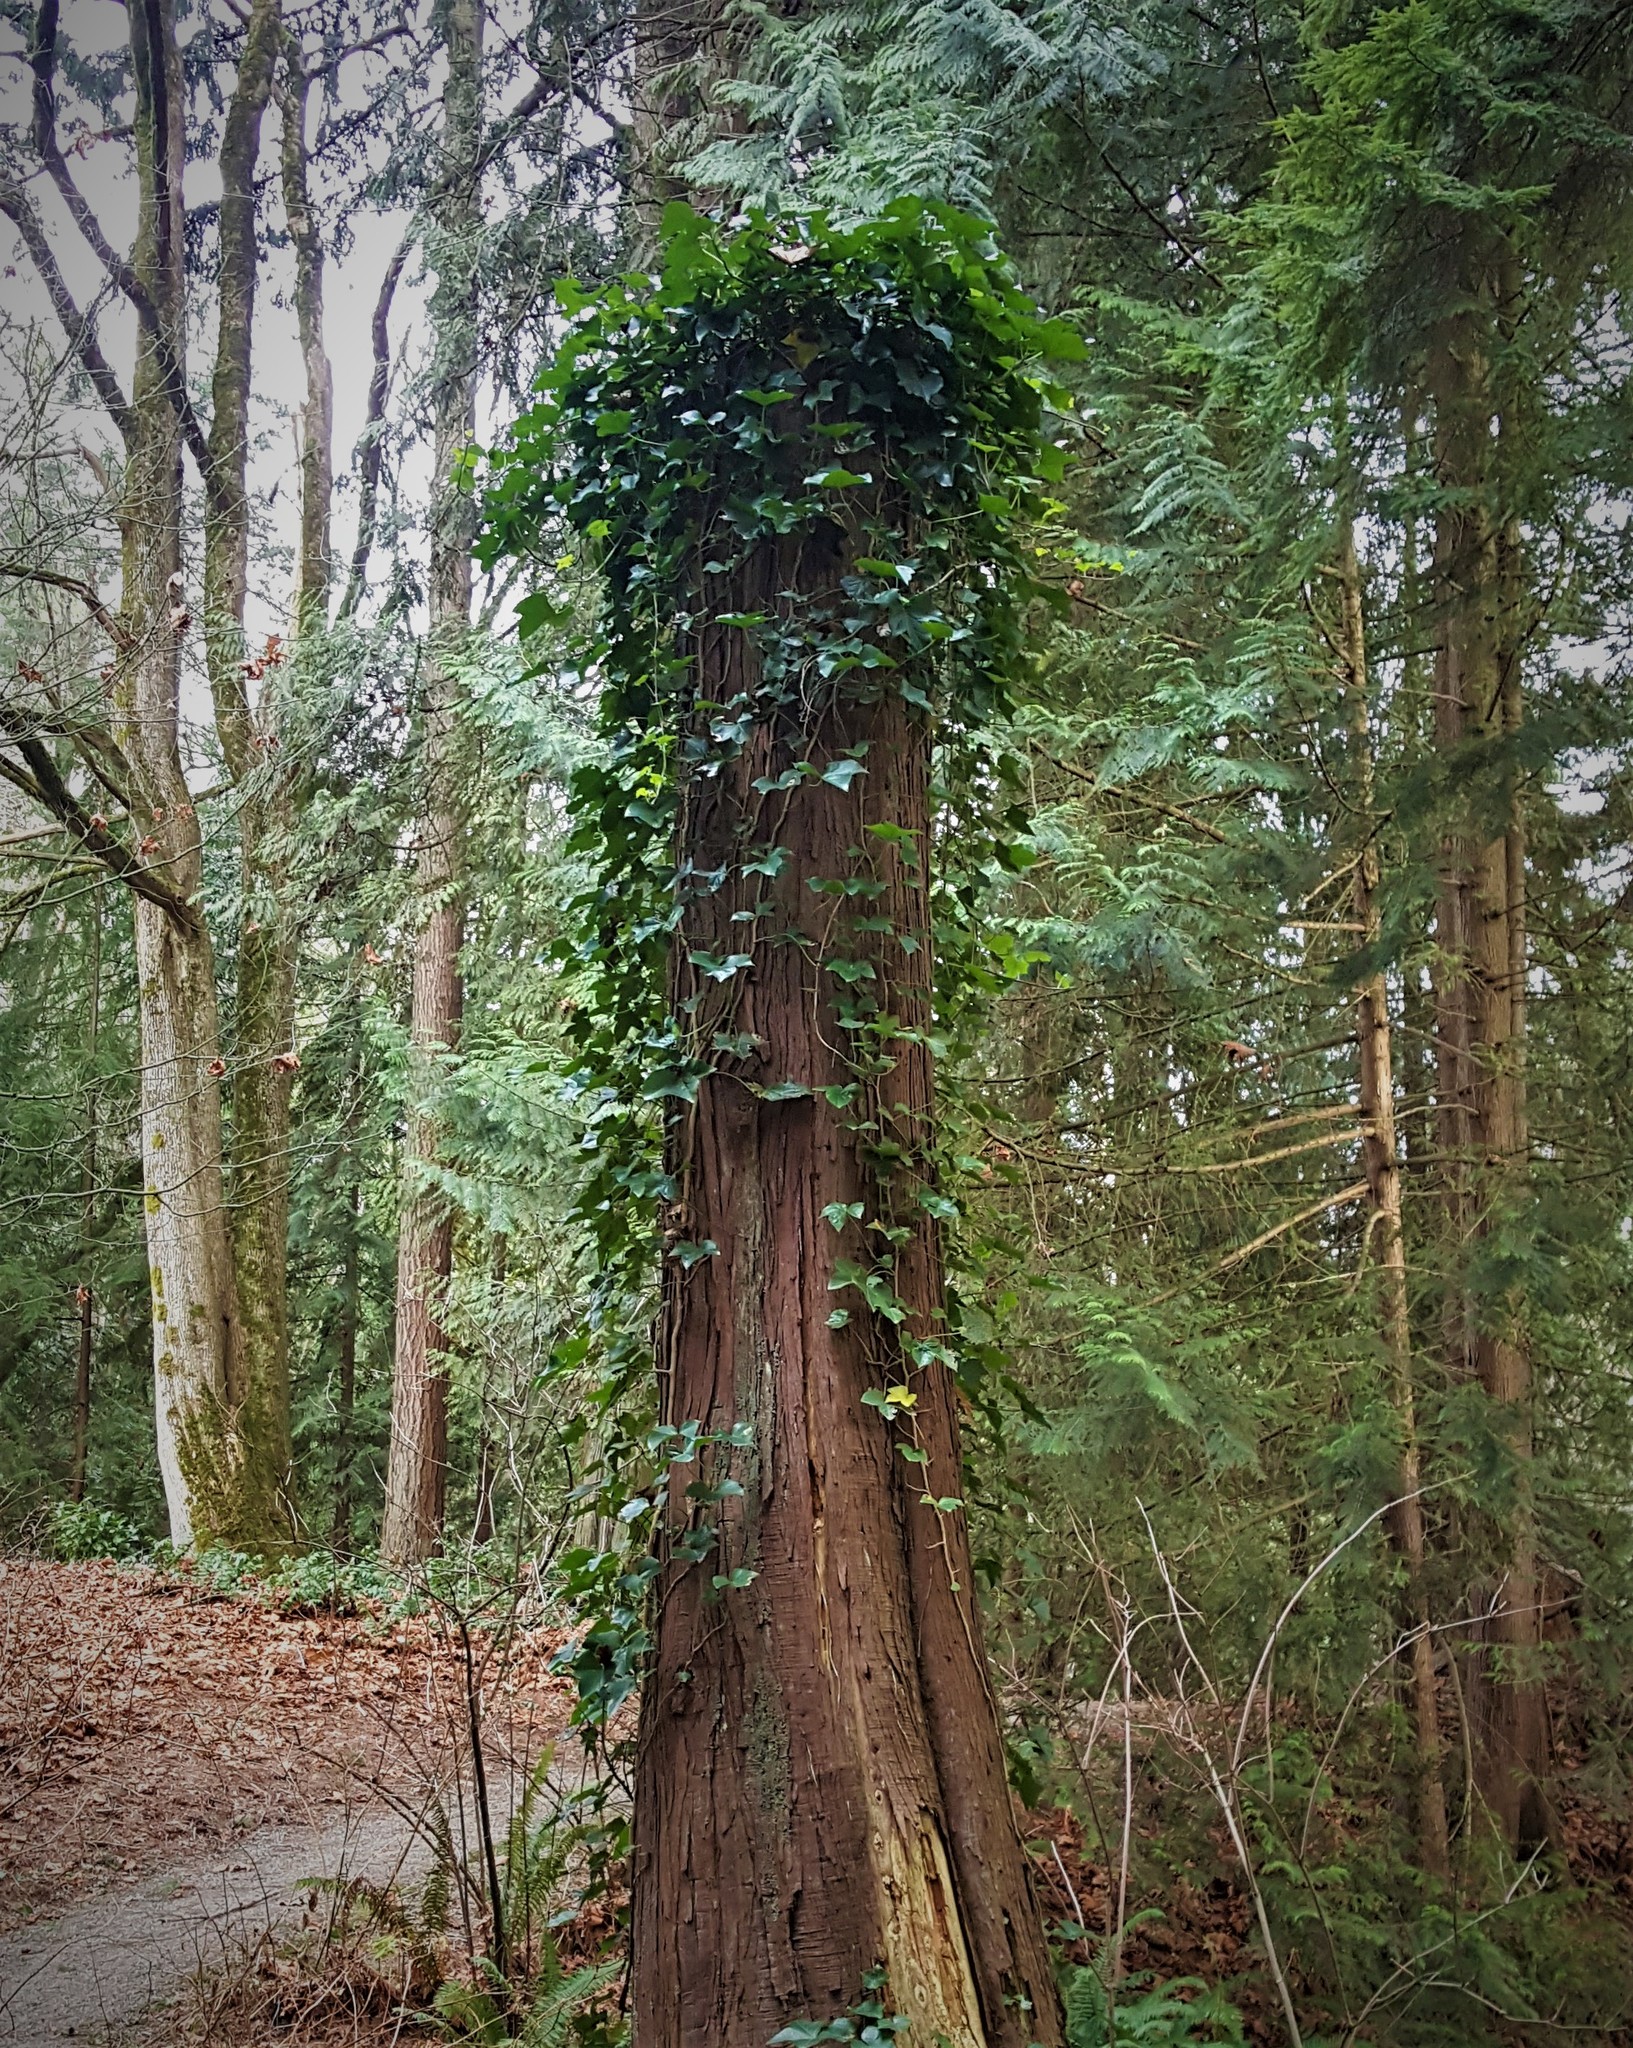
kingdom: Plantae
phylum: Tracheophyta
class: Magnoliopsida
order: Apiales
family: Araliaceae
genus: Hedera
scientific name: Hedera helix
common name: Ivy
